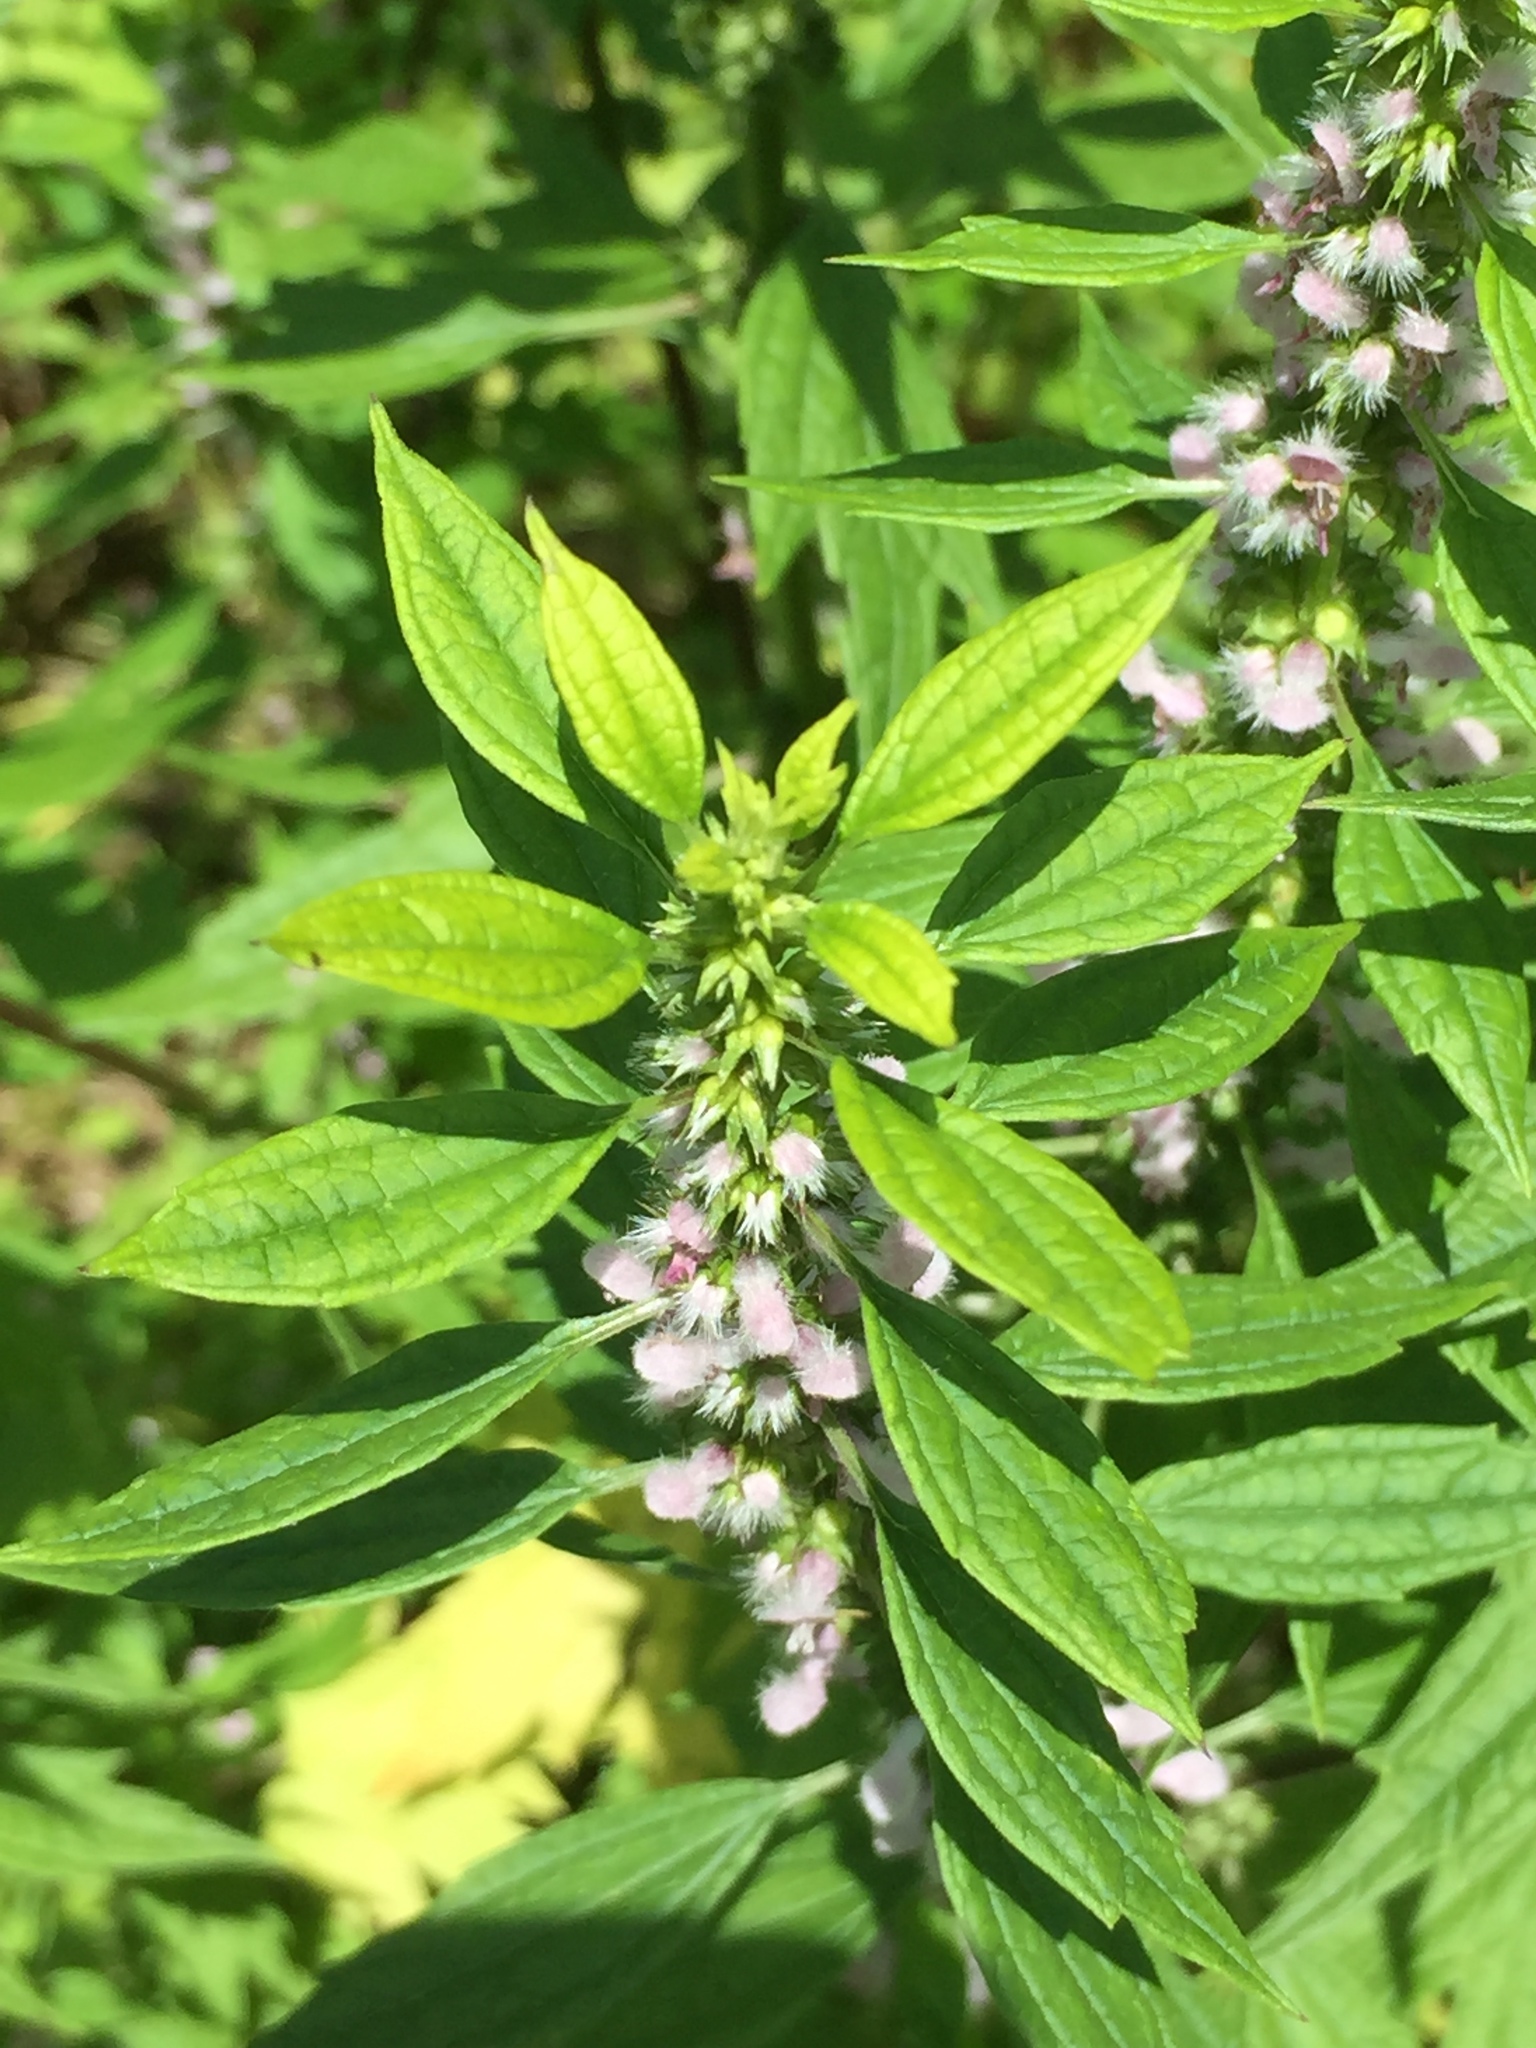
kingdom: Plantae
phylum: Tracheophyta
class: Magnoliopsida
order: Lamiales
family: Lamiaceae
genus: Leonurus
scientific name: Leonurus cardiaca
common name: Motherwort
